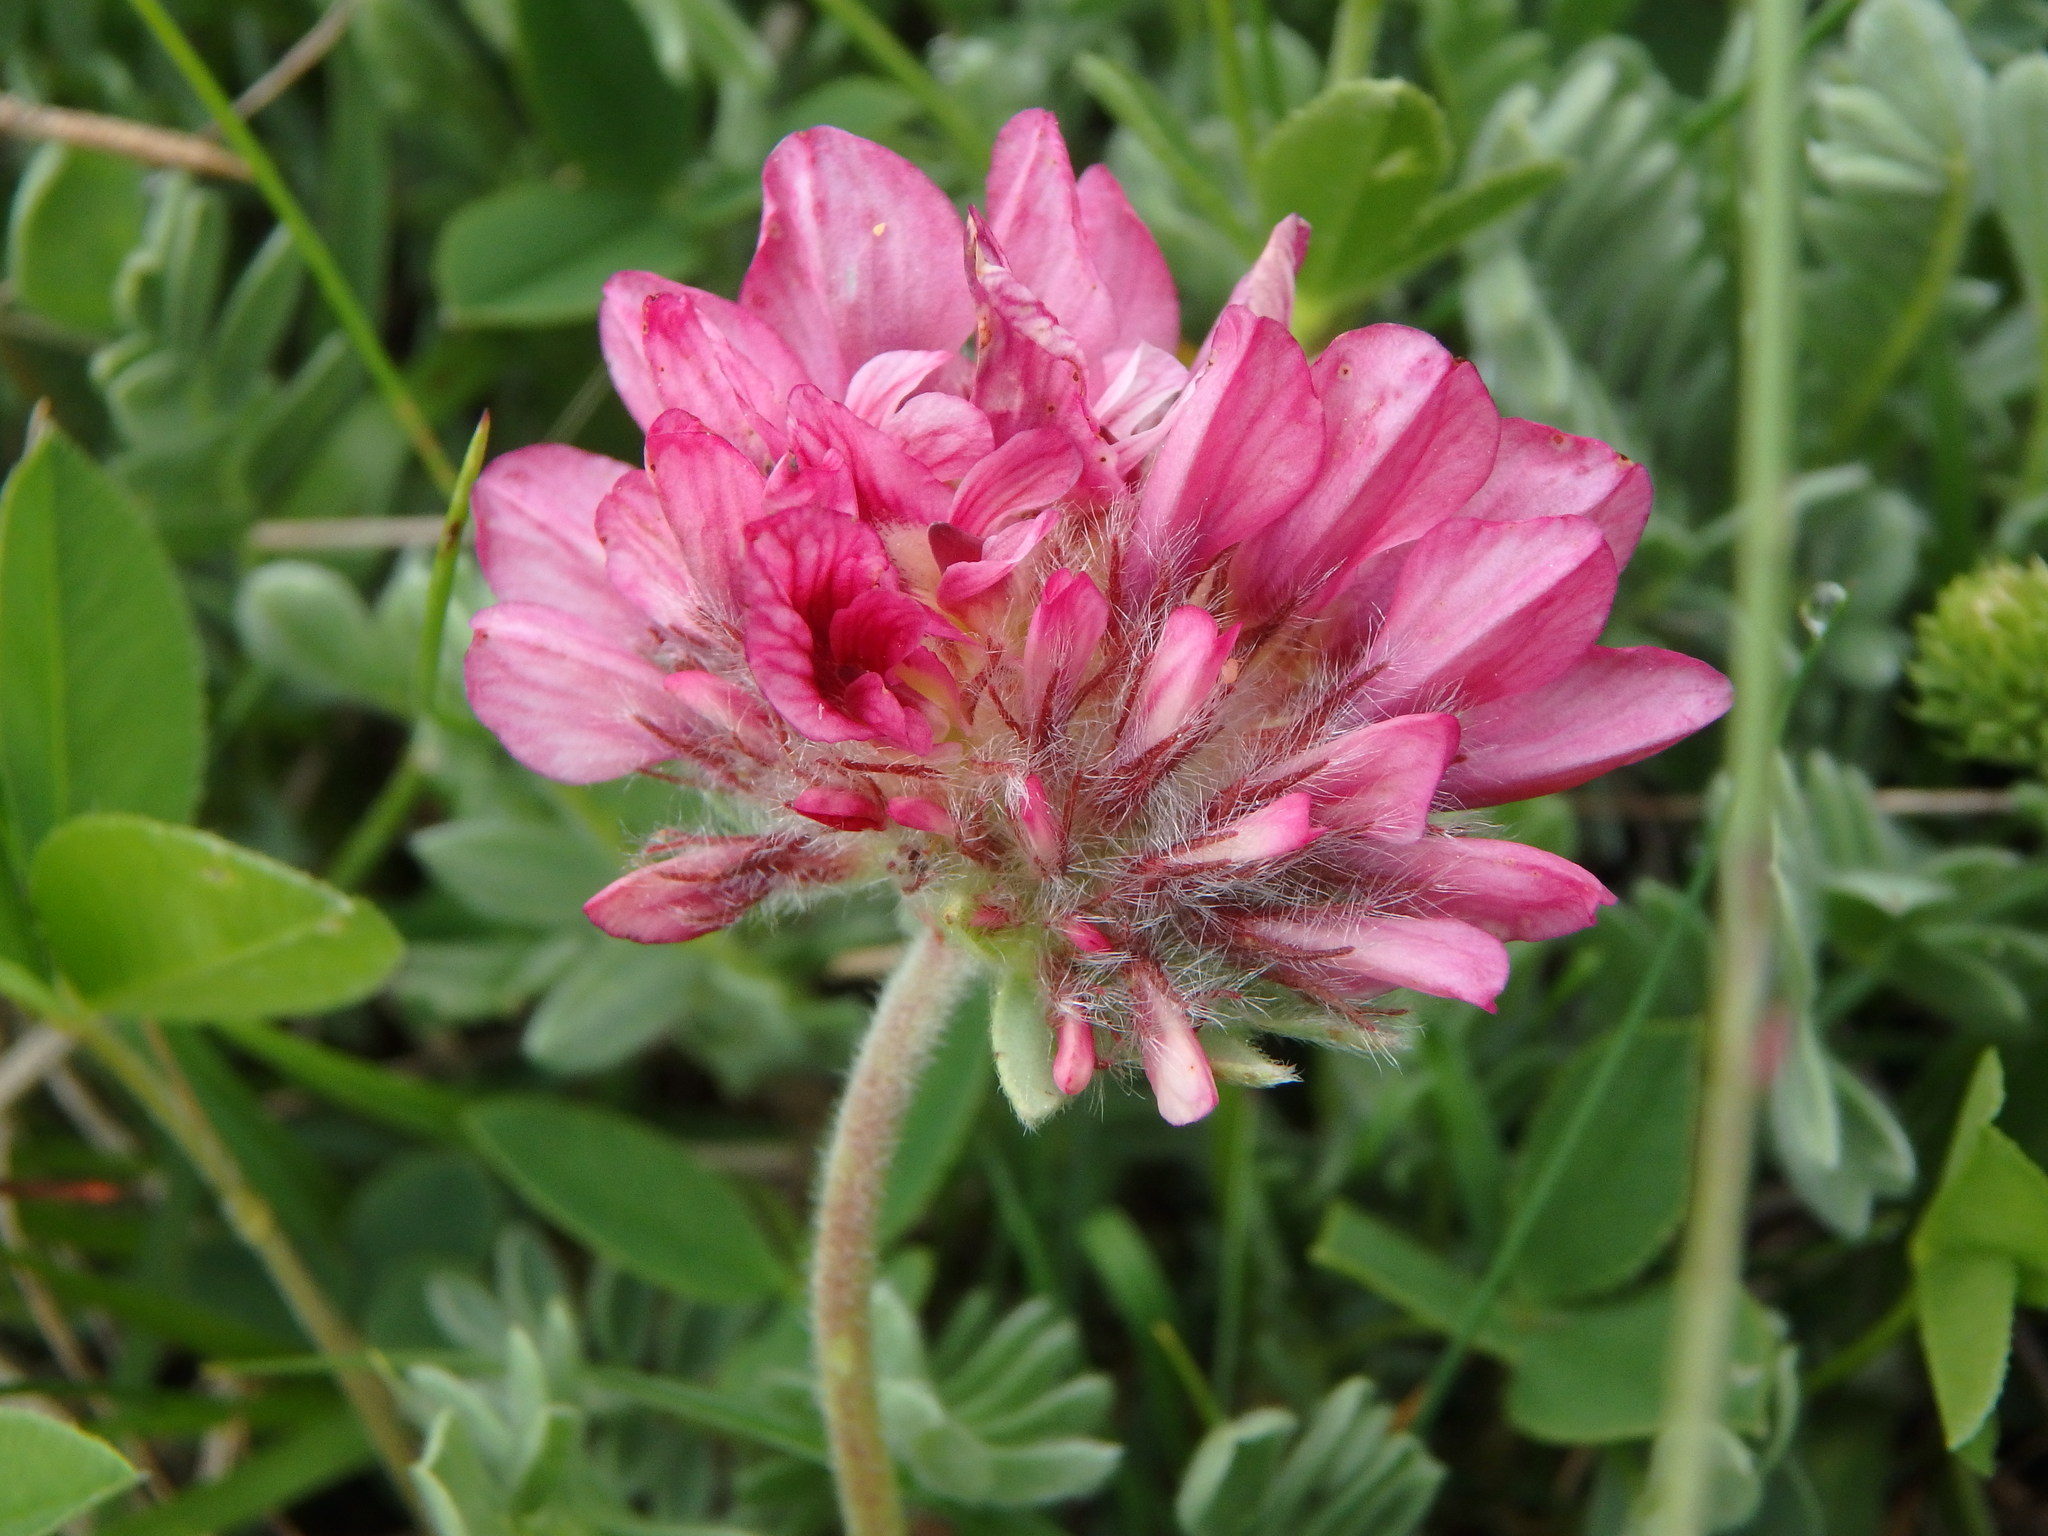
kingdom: Plantae
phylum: Tracheophyta
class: Magnoliopsida
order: Fabales
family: Fabaceae
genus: Anthyllis
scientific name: Anthyllis montana
